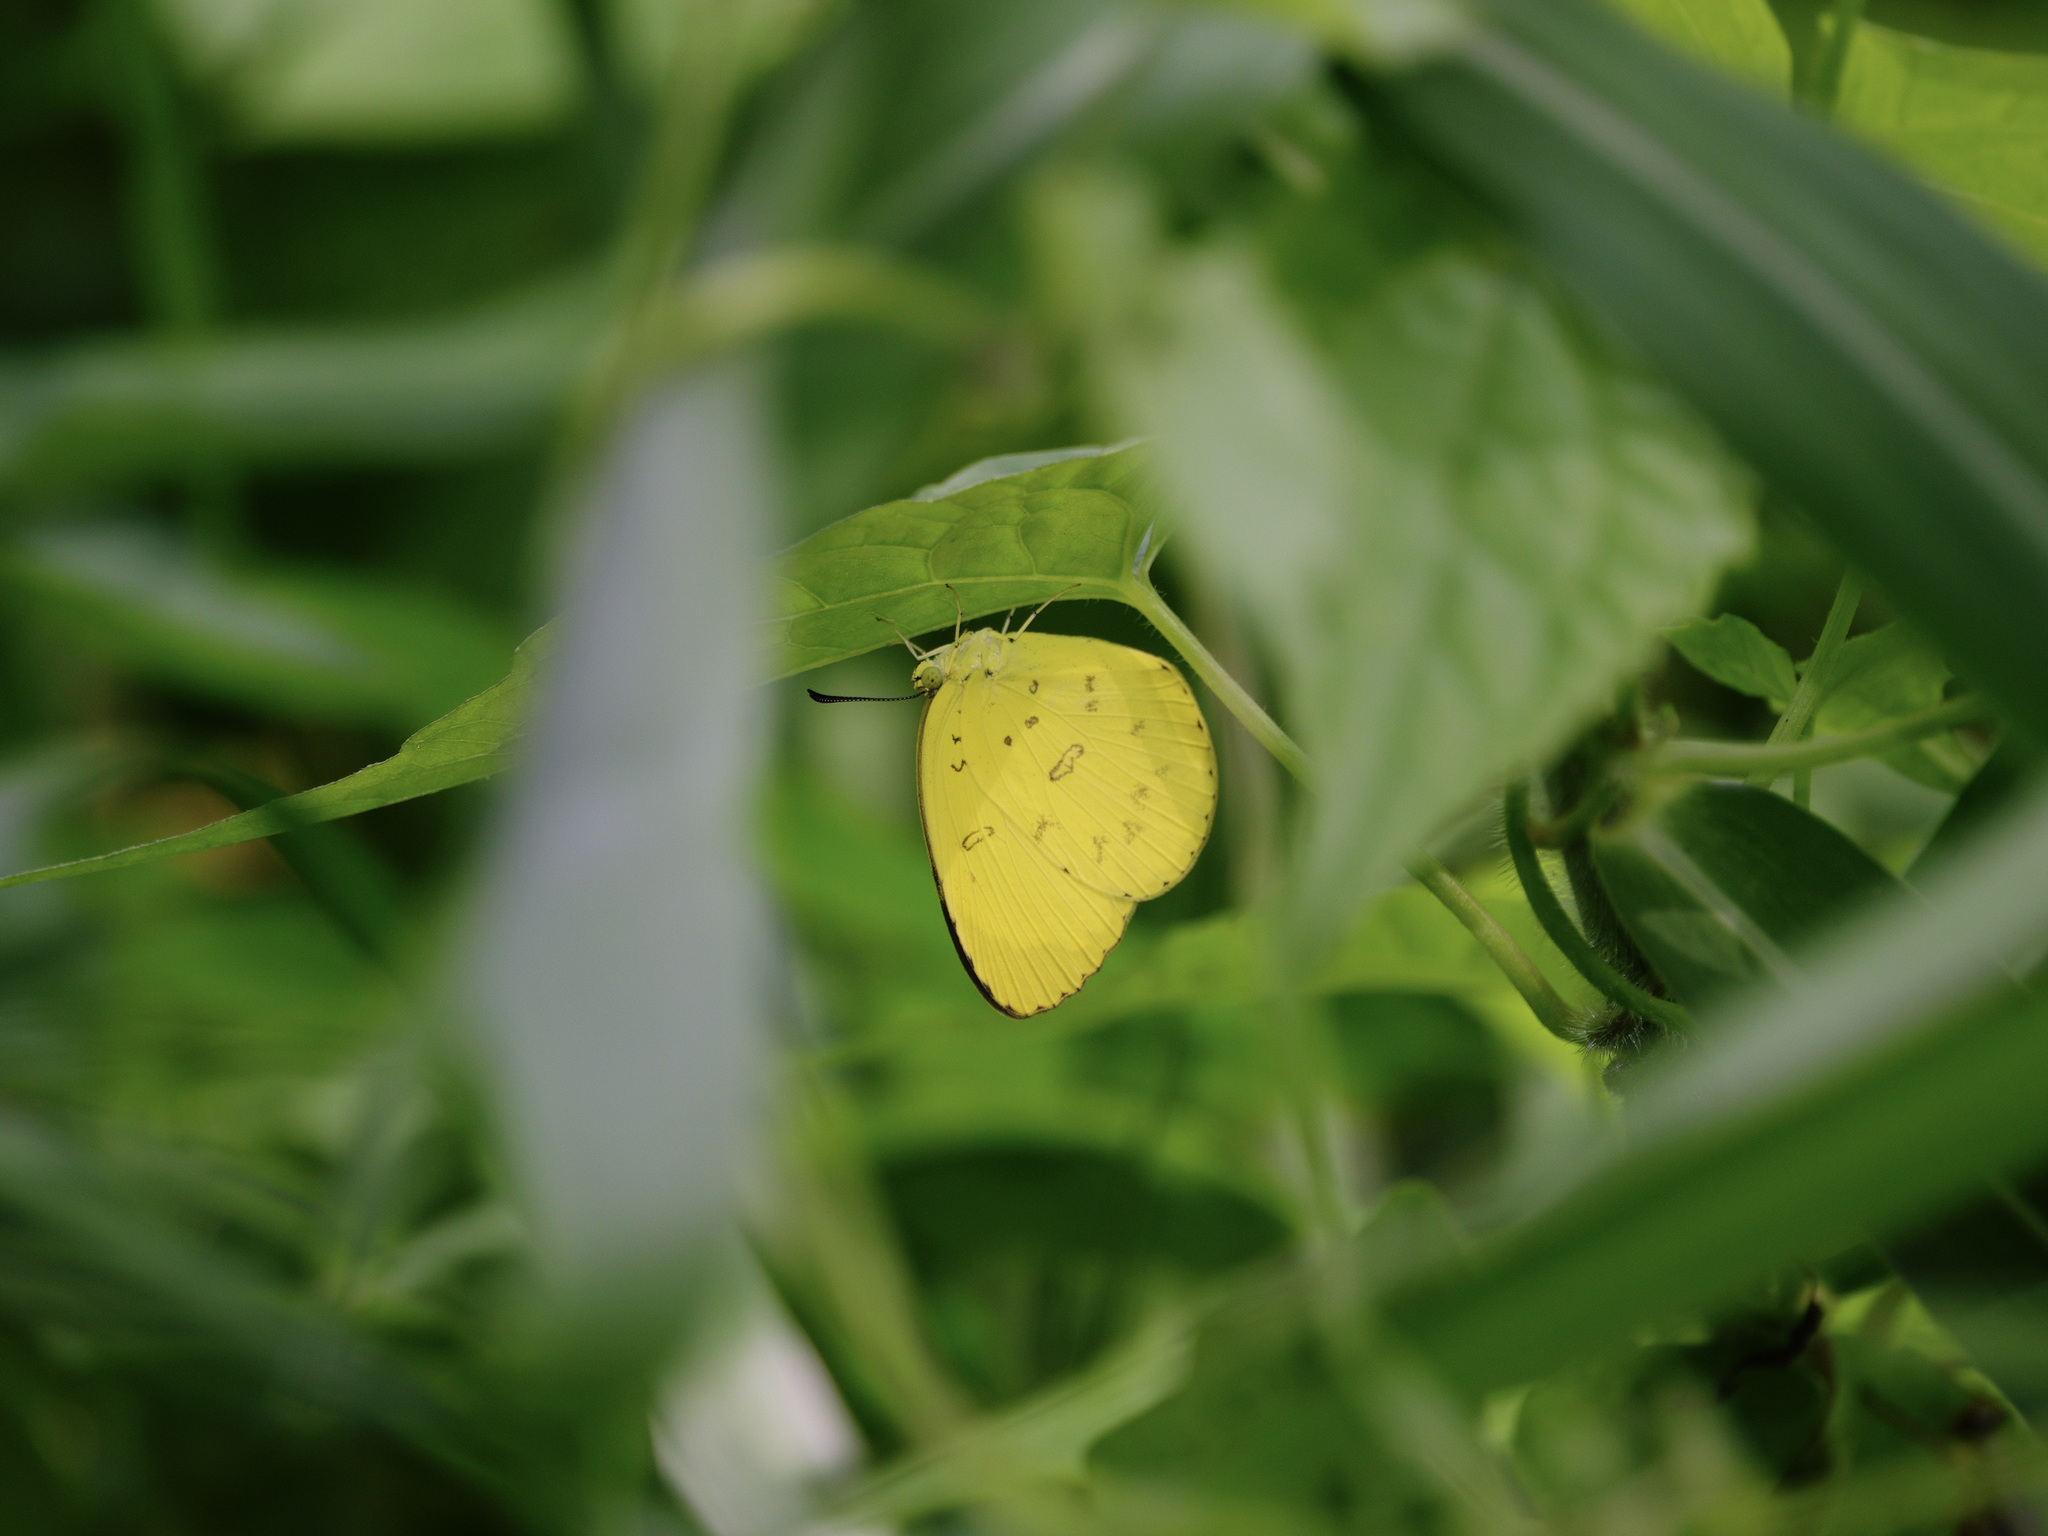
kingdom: Animalia
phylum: Arthropoda
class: Insecta
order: Lepidoptera
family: Pieridae
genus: Eurema
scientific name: Eurema blanda
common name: Three-spot grass yellow
